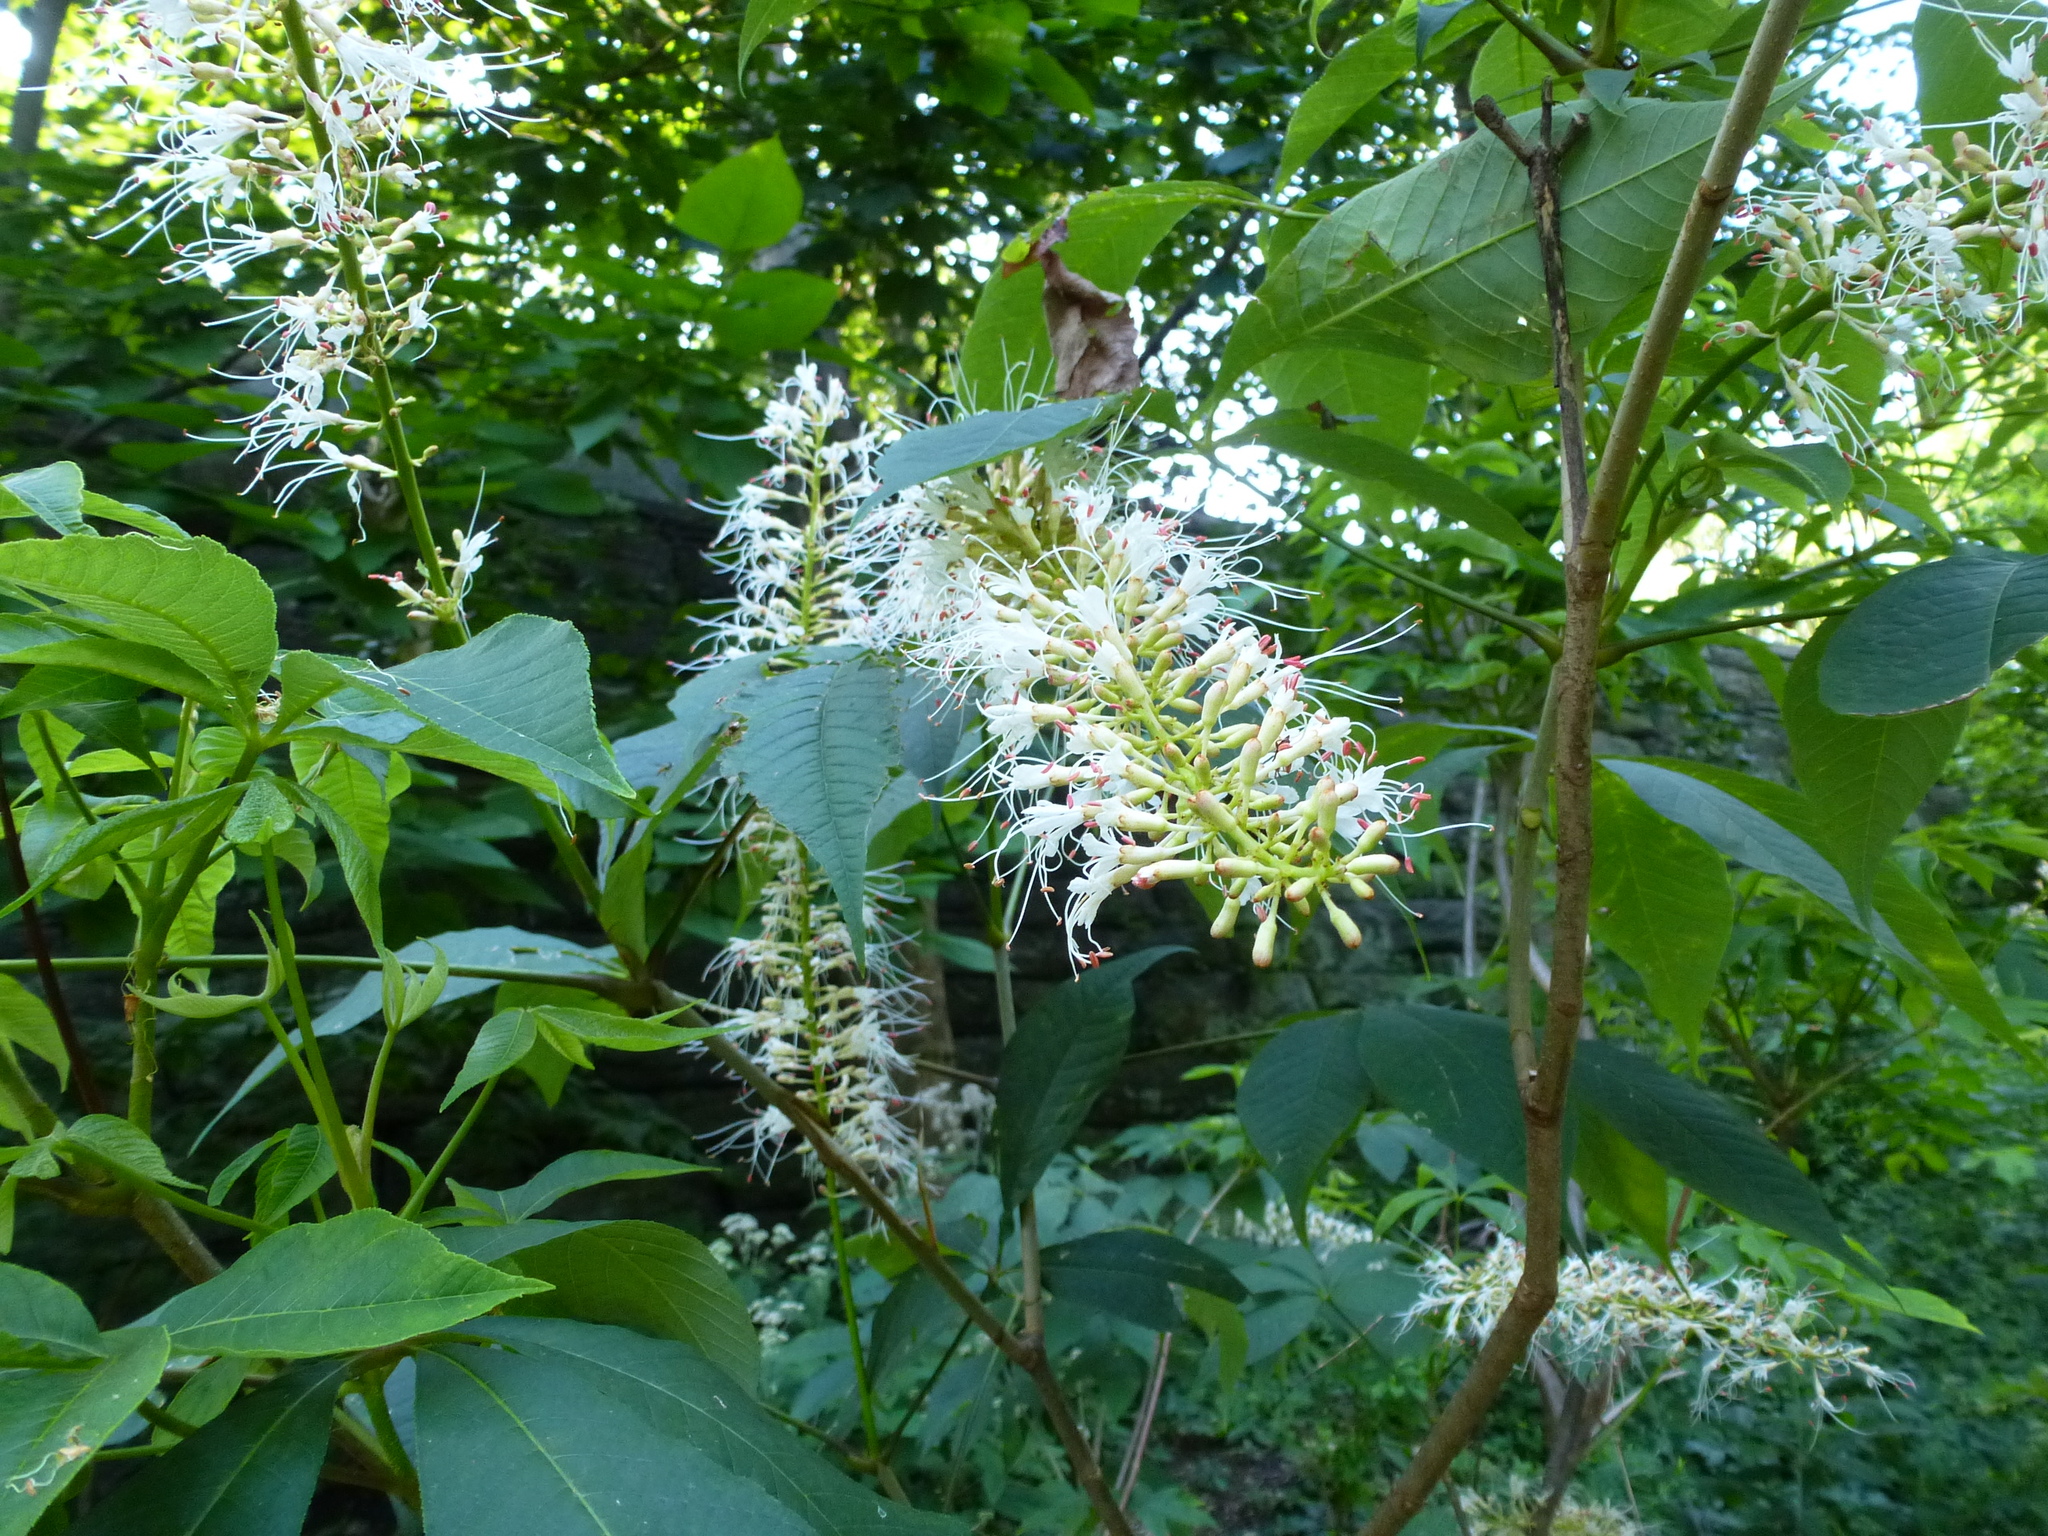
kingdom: Plantae
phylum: Tracheophyta
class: Magnoliopsida
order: Sapindales
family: Sapindaceae
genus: Aesculus
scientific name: Aesculus parviflora
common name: Bottlebrush buckeye
